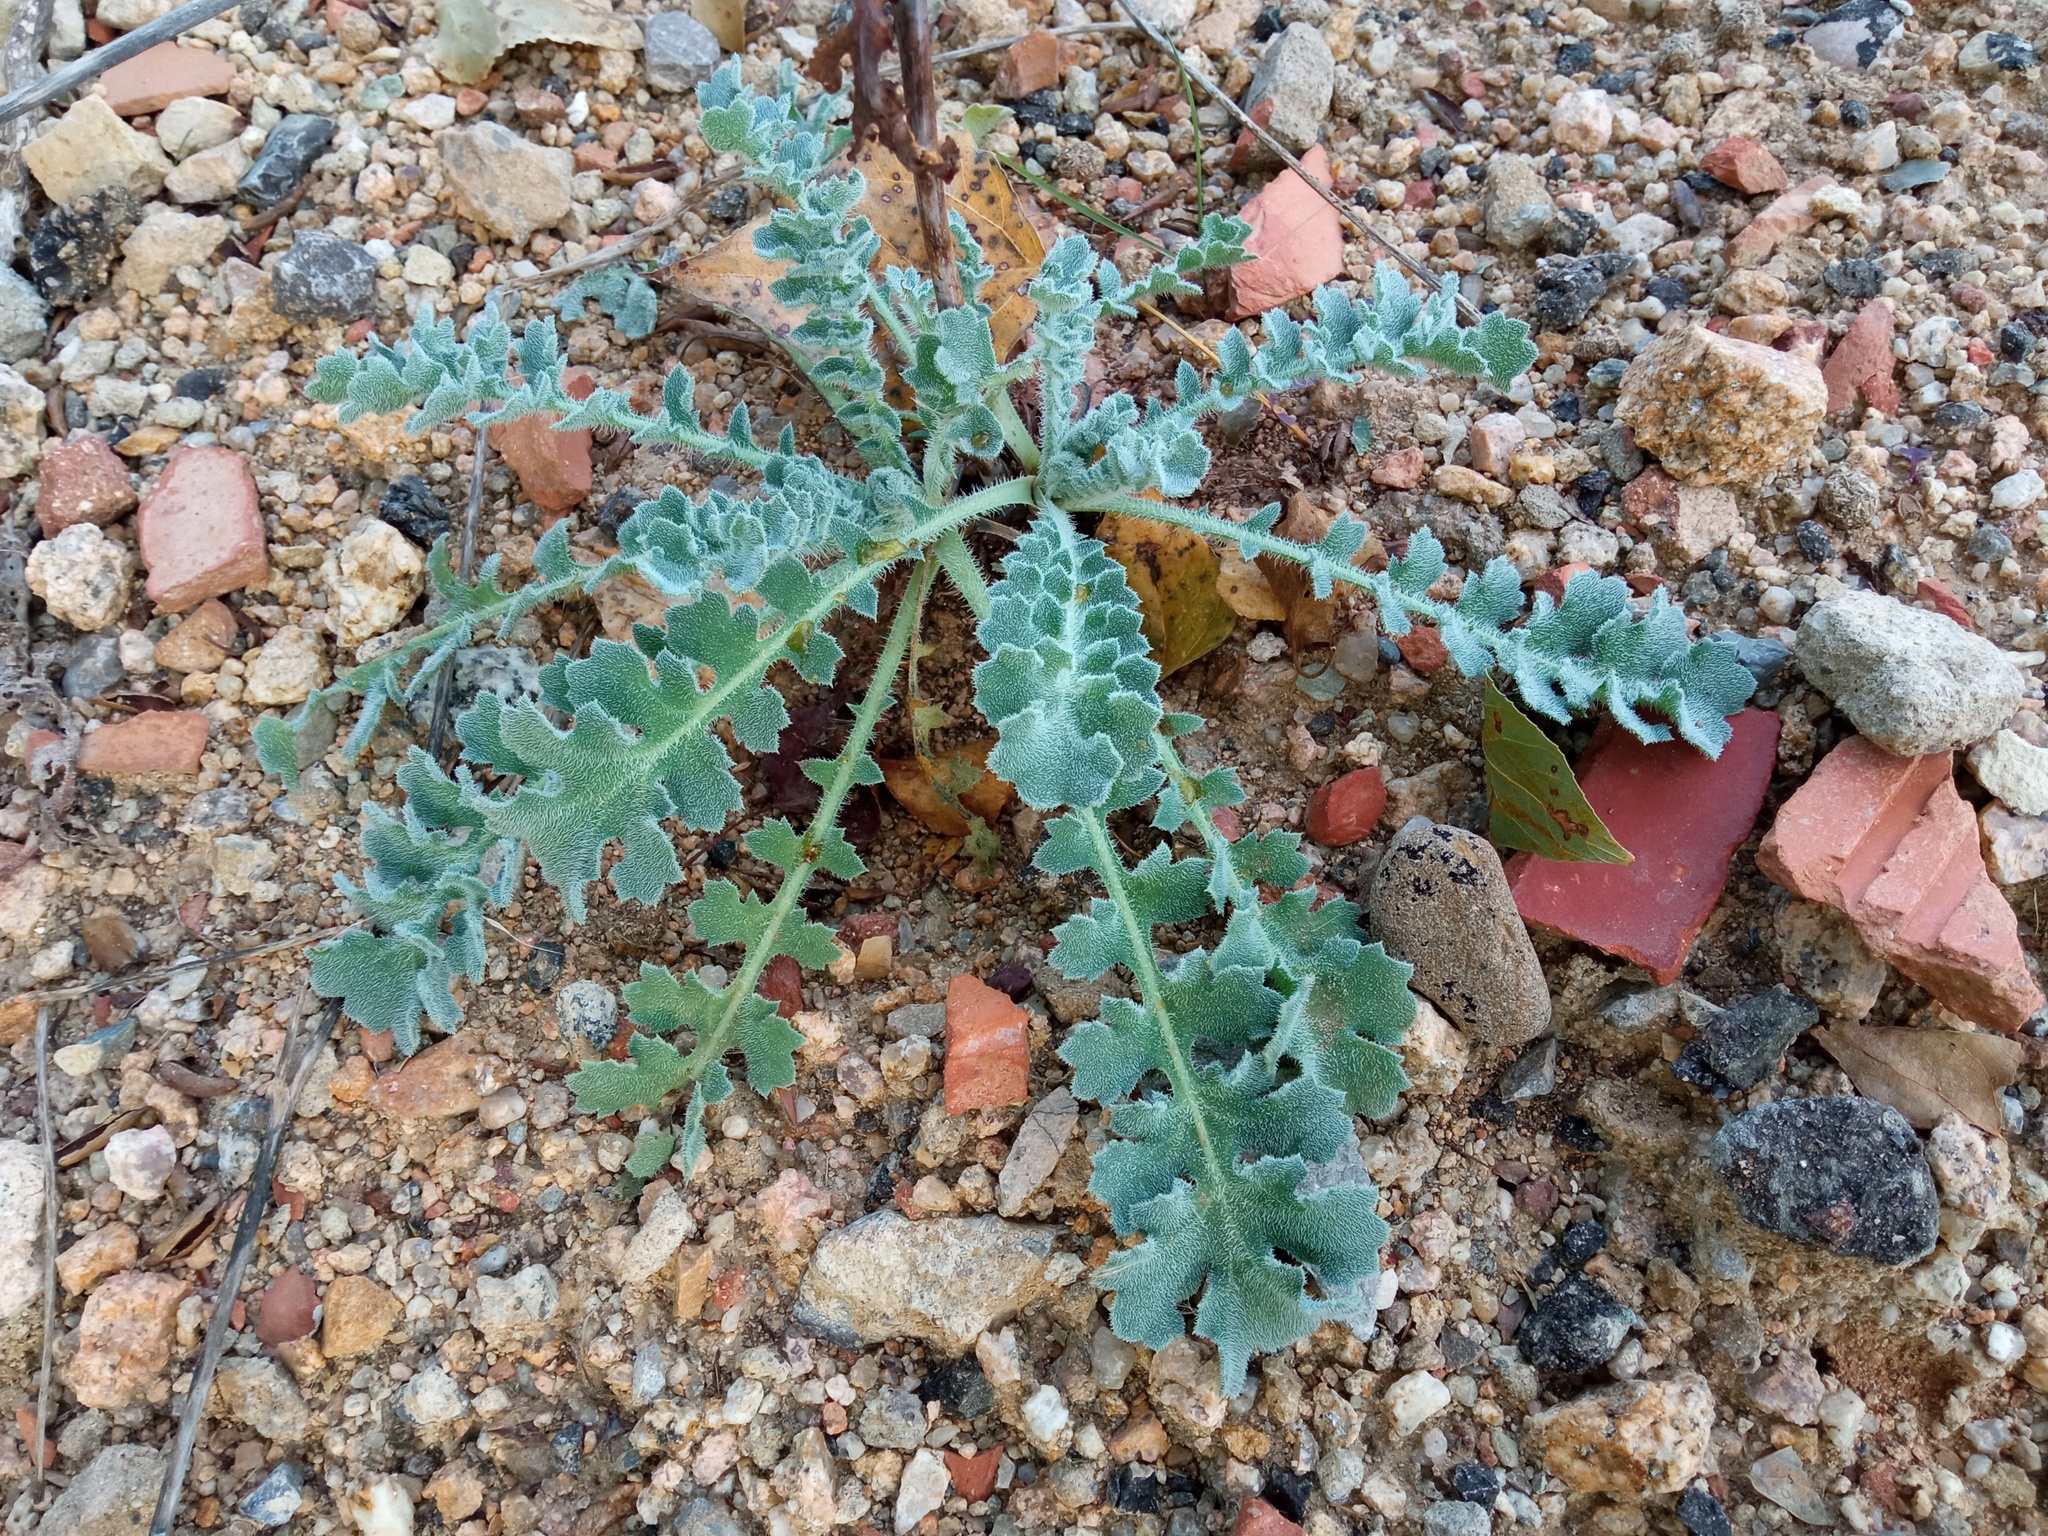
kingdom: Plantae
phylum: Tracheophyta
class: Magnoliopsida
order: Ranunculales
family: Papaveraceae
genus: Glaucium
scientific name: Glaucium flavum
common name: Yellow horned-poppy
